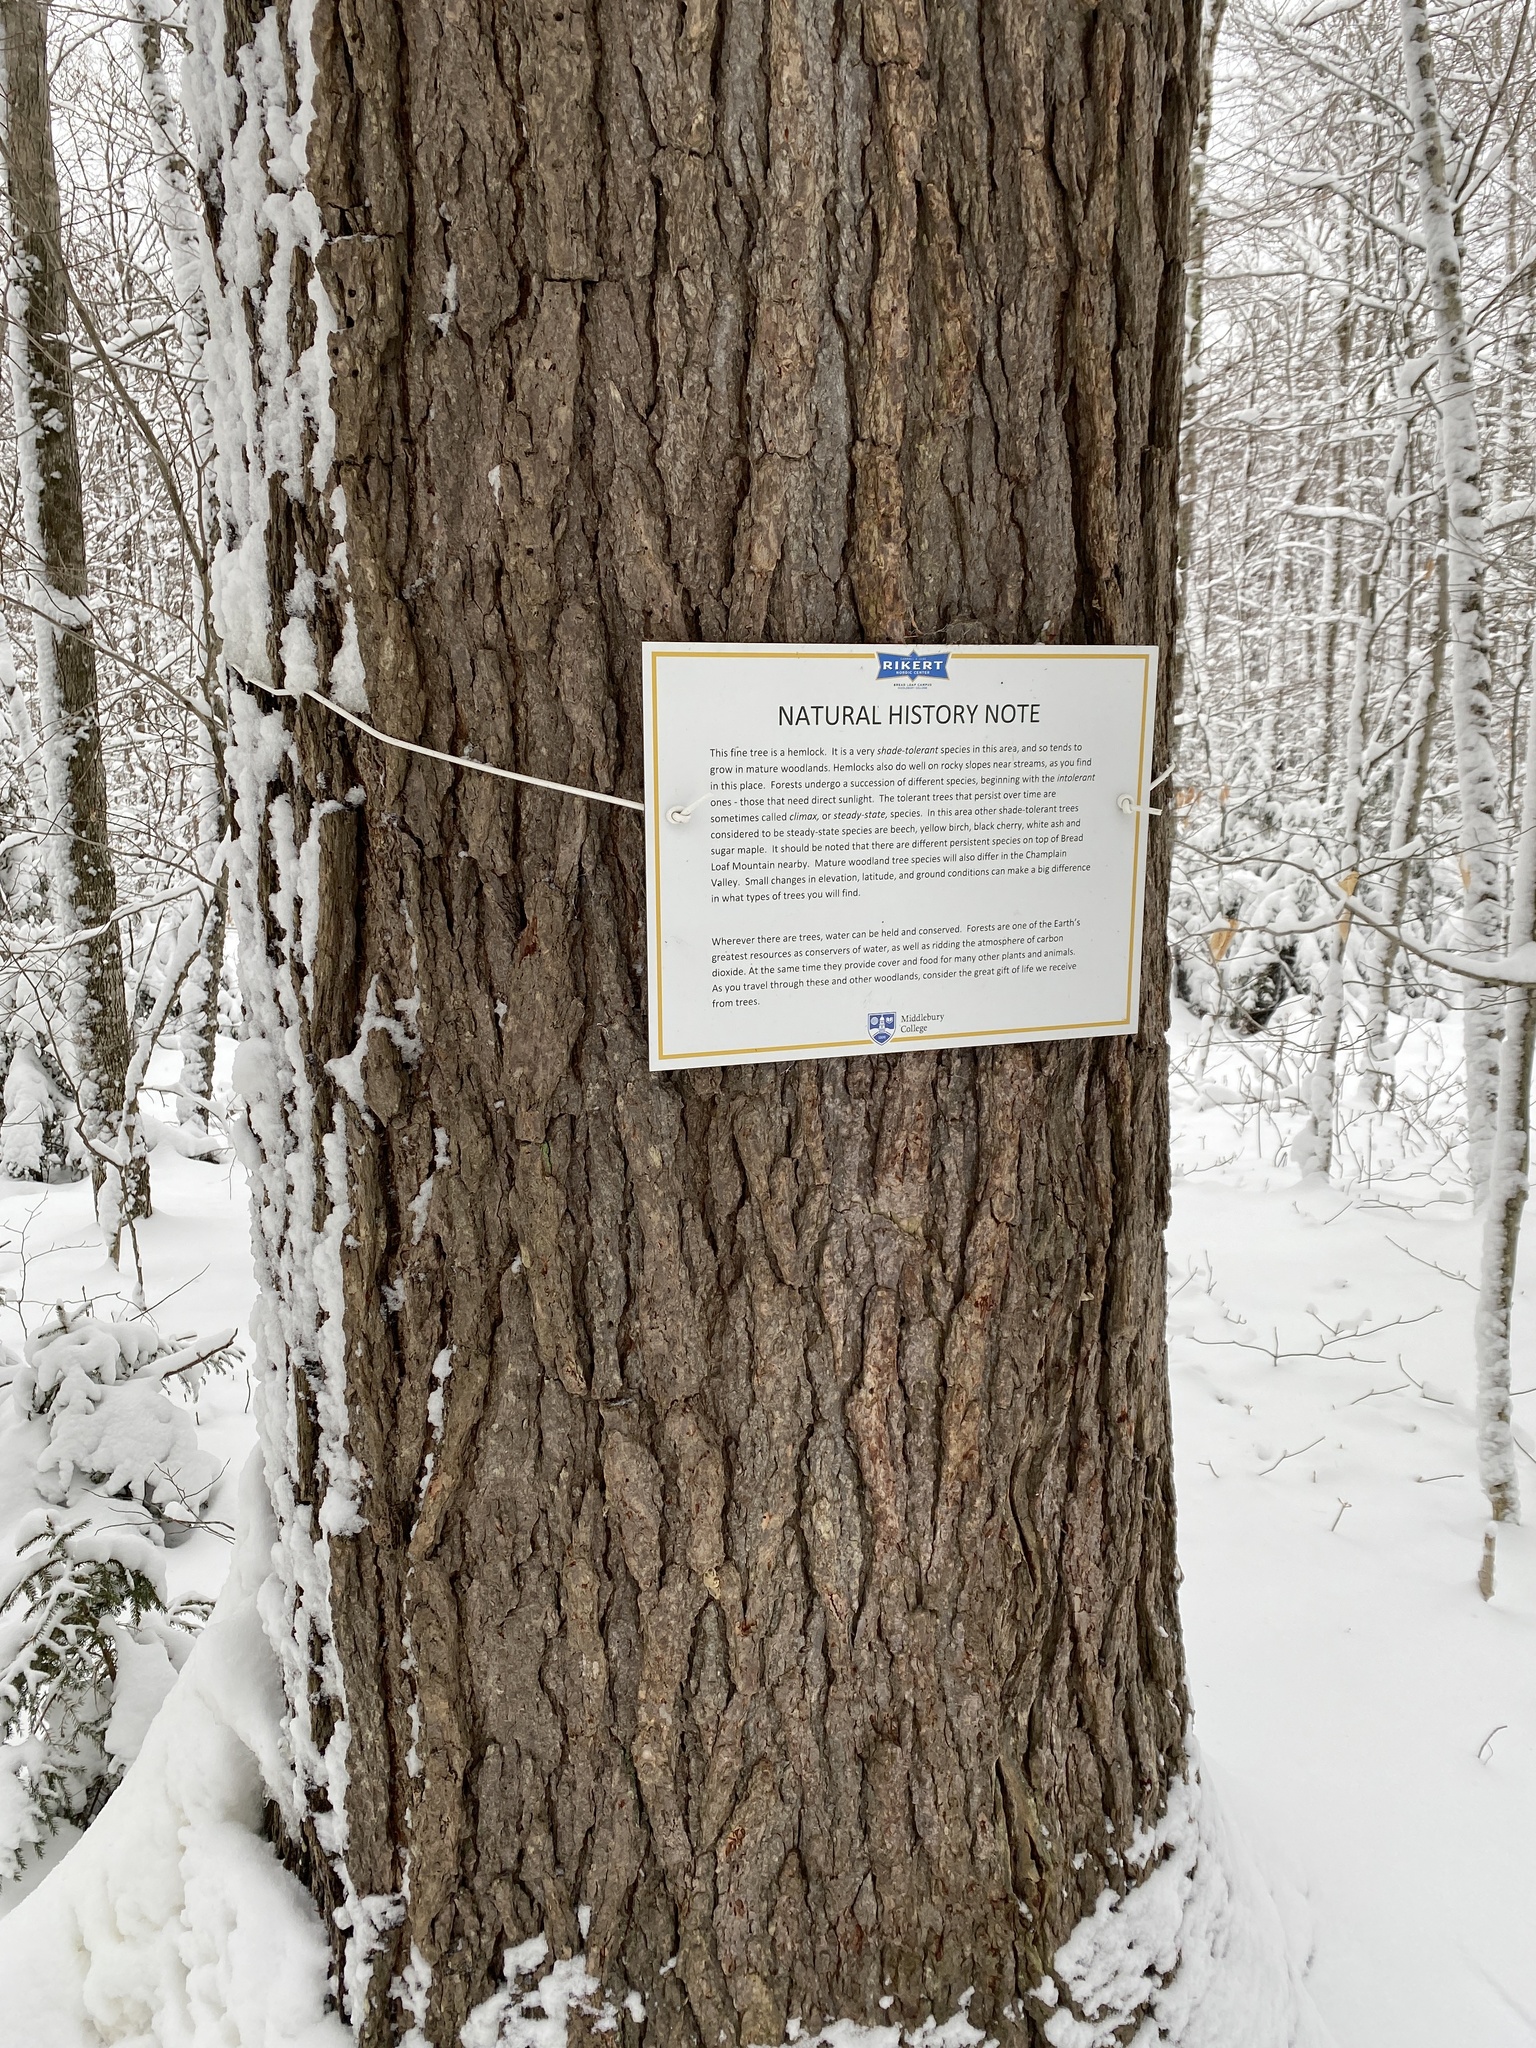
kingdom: Plantae
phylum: Tracheophyta
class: Pinopsida
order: Pinales
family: Pinaceae
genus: Tsuga
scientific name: Tsuga canadensis
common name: Eastern hemlock
